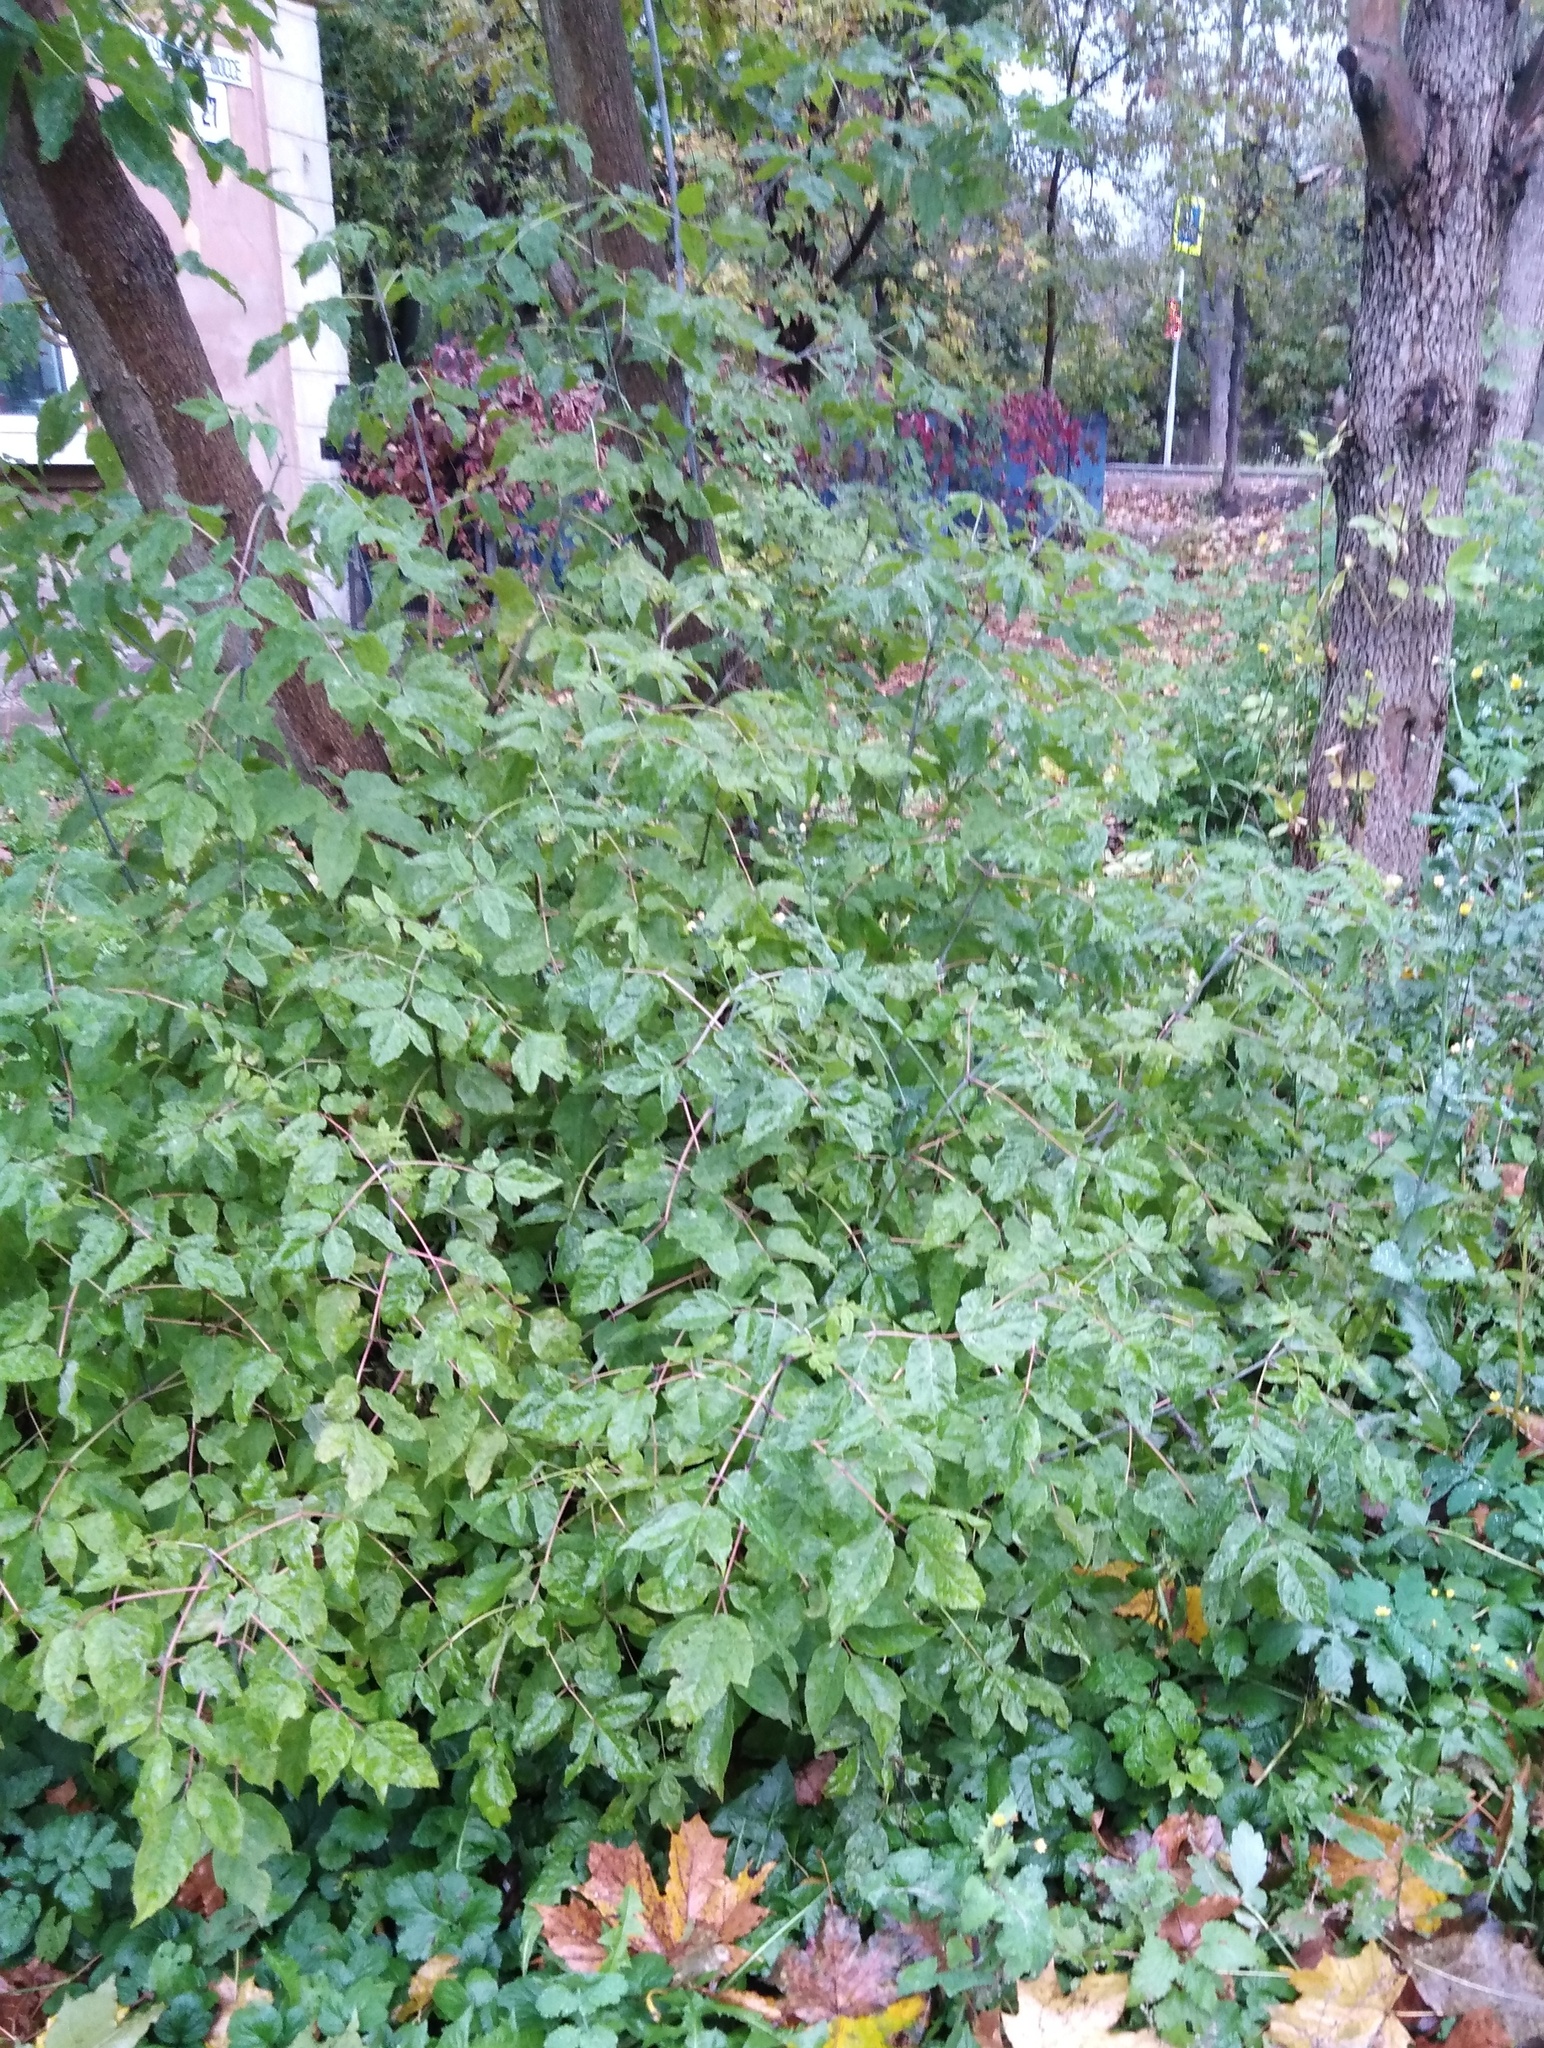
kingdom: Plantae
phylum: Tracheophyta
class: Magnoliopsida
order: Sapindales
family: Sapindaceae
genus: Acer
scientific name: Acer negundo
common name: Ashleaf maple
